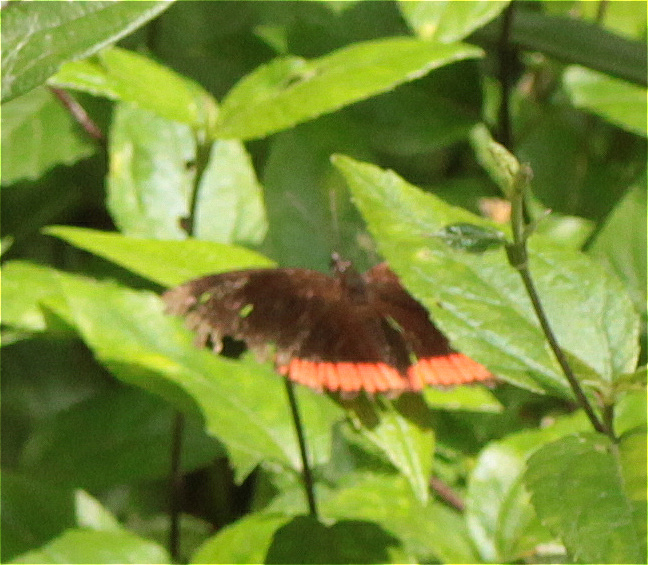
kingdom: Animalia
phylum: Arthropoda
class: Insecta
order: Lepidoptera
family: Sesiidae
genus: Sesia
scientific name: Sesia Biblis hyperia
